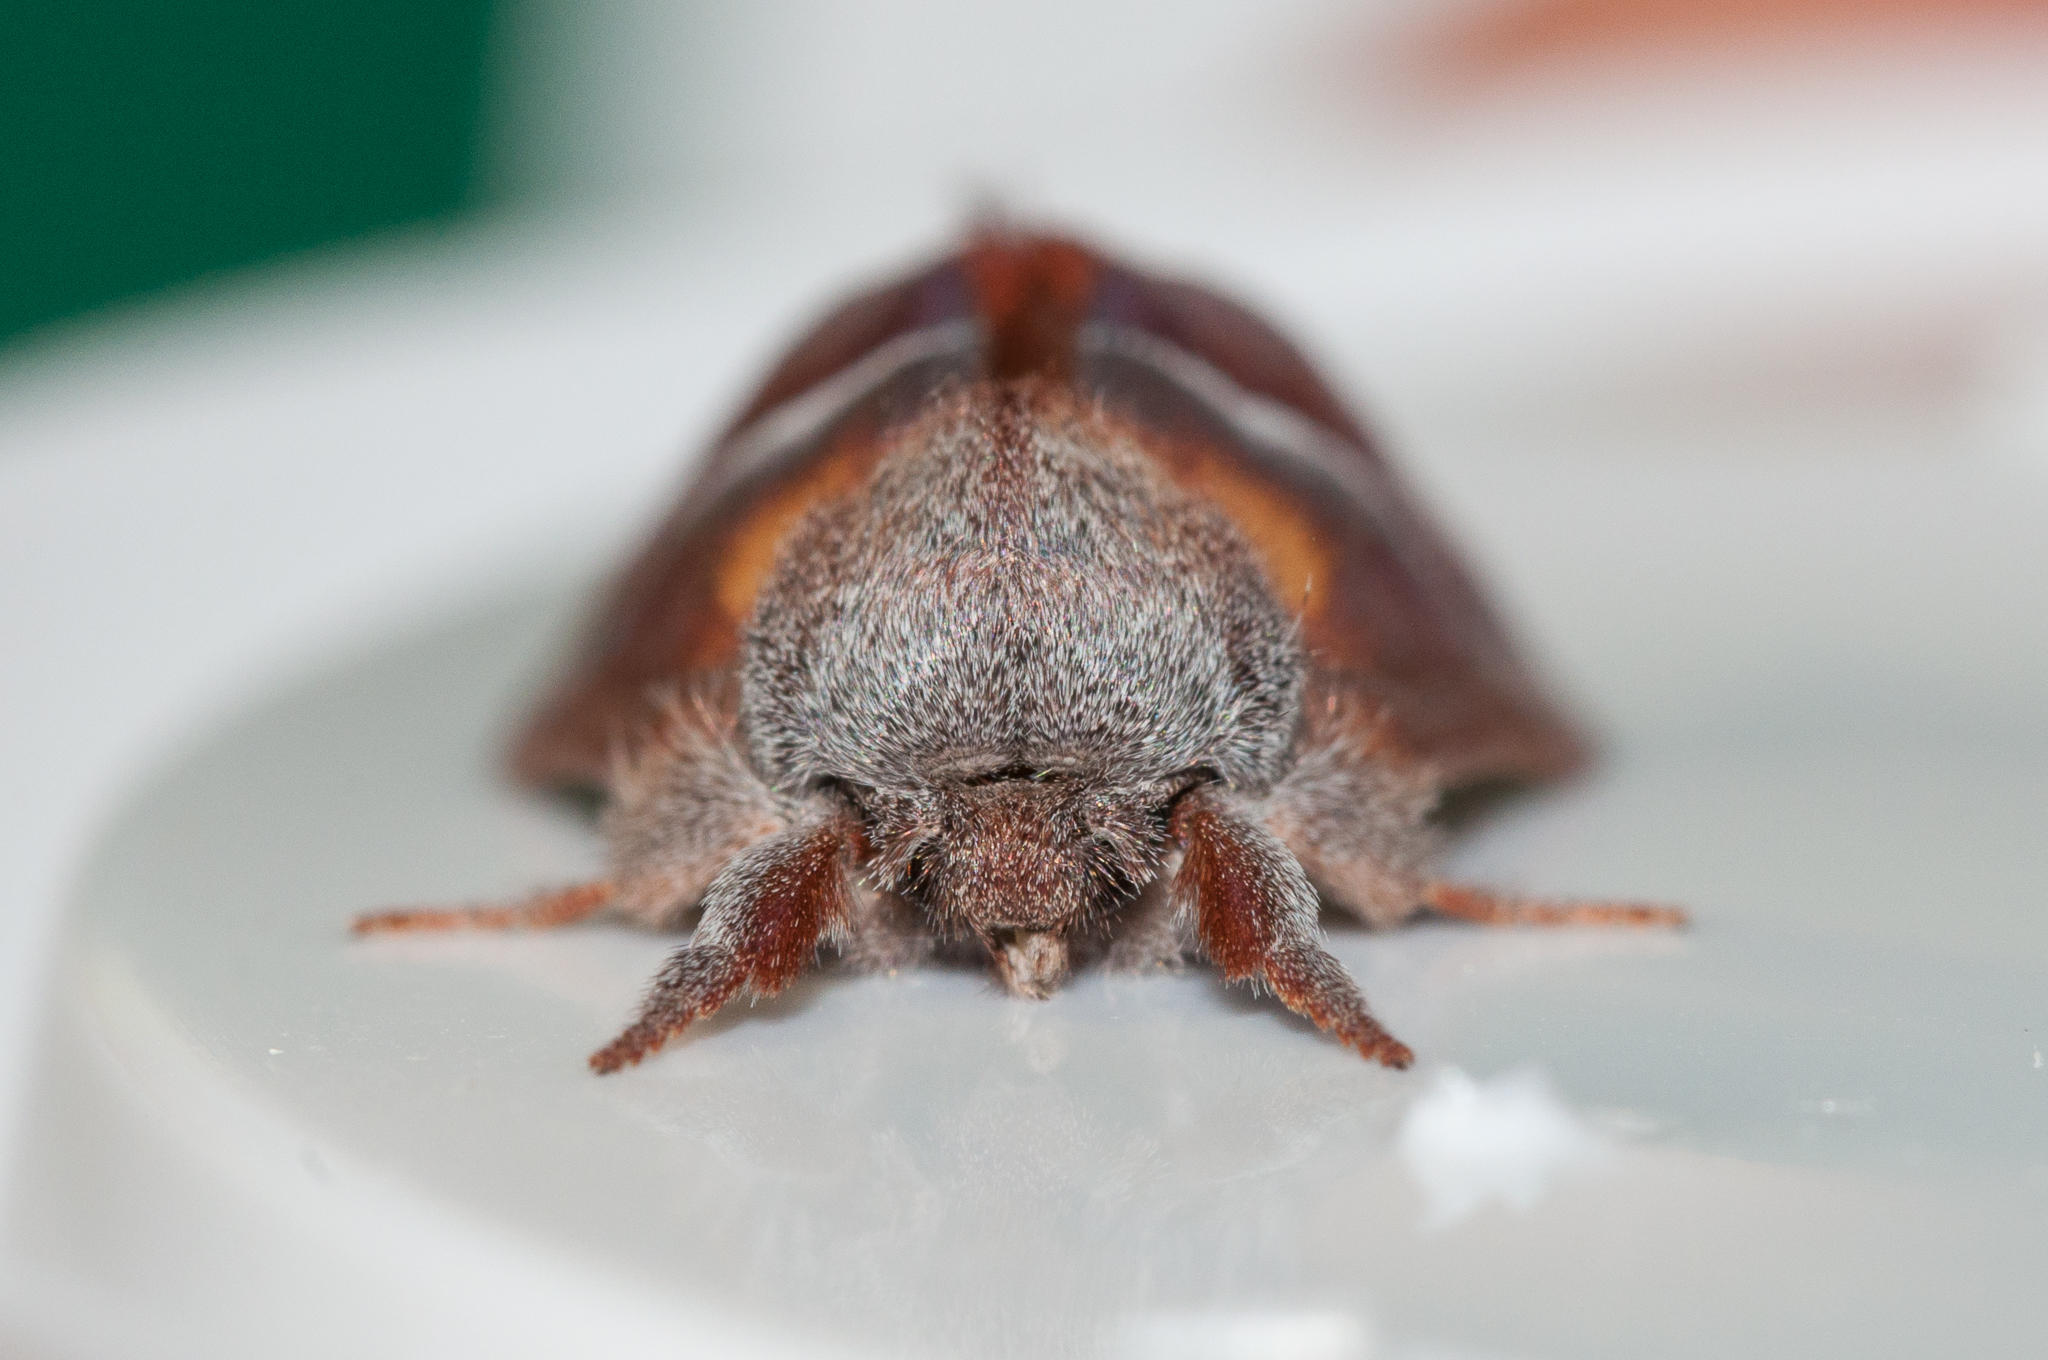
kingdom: Animalia
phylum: Arthropoda
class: Insecta
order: Lepidoptera
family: Notodontidae
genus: Clostera
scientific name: Clostera limacodina
